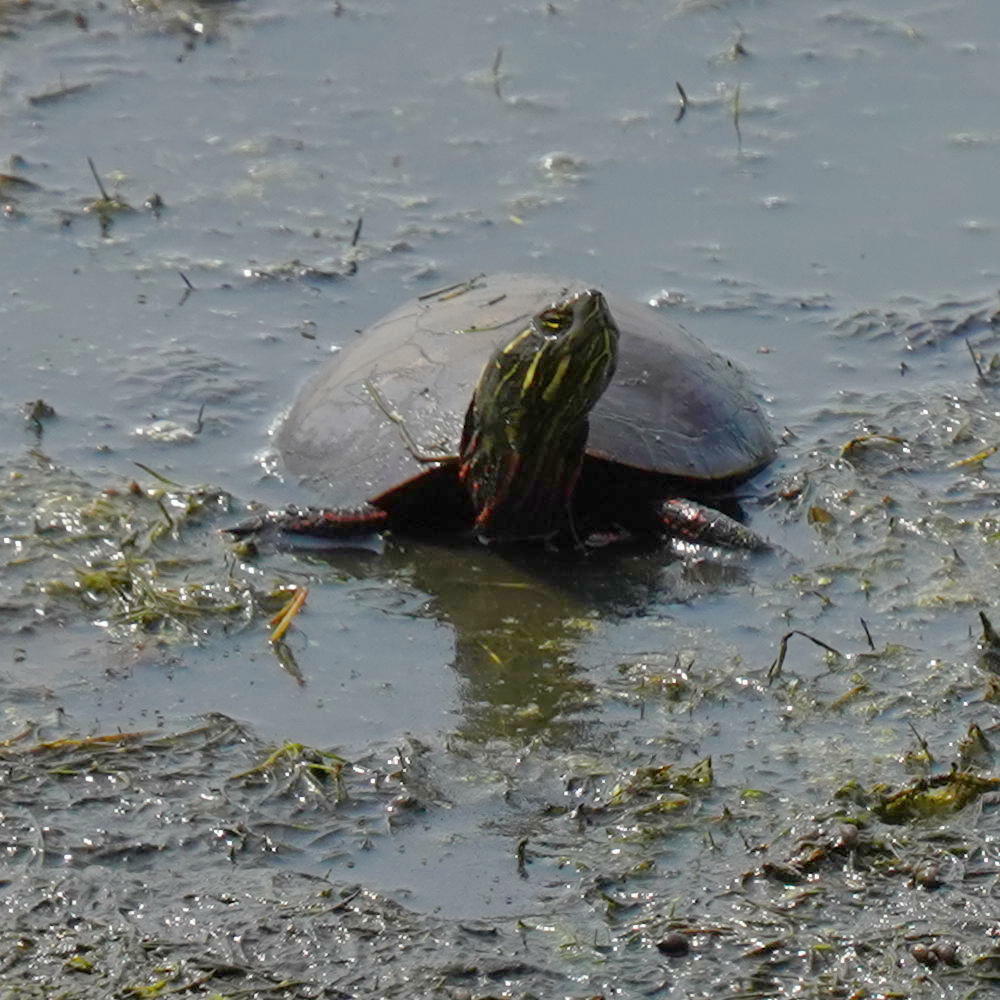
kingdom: Animalia
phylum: Chordata
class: Testudines
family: Emydidae
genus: Chrysemys
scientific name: Chrysemys picta
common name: Painted turtle
